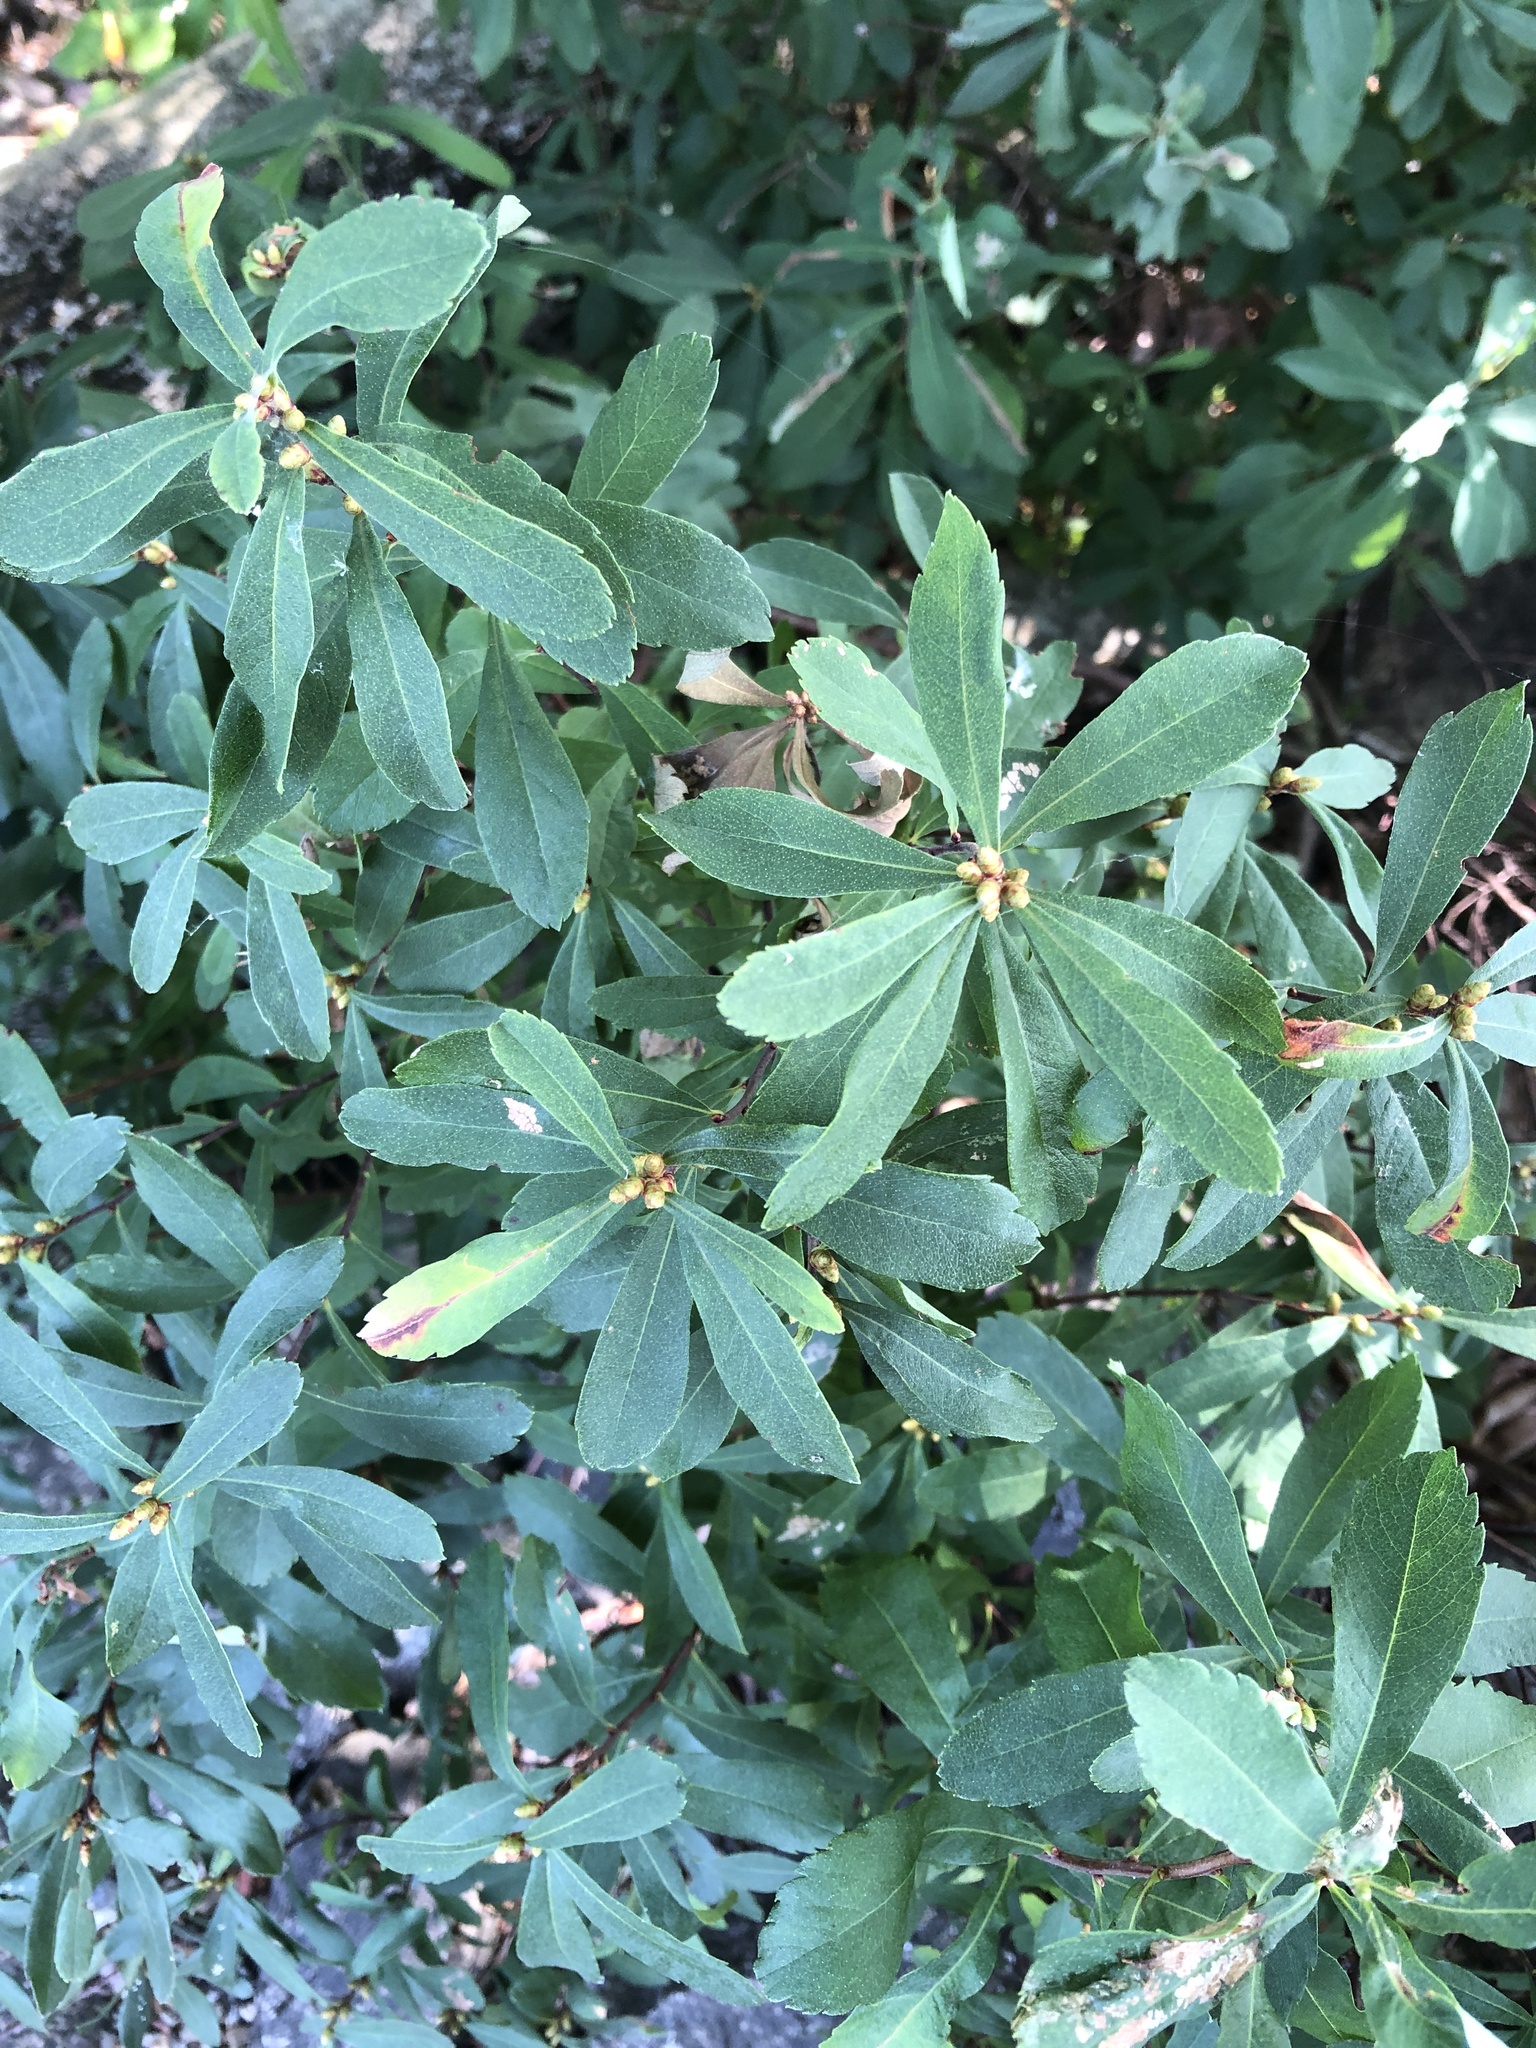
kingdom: Plantae
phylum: Tracheophyta
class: Magnoliopsida
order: Fagales
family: Myricaceae
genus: Myrica
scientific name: Myrica gale
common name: Sweet gale
